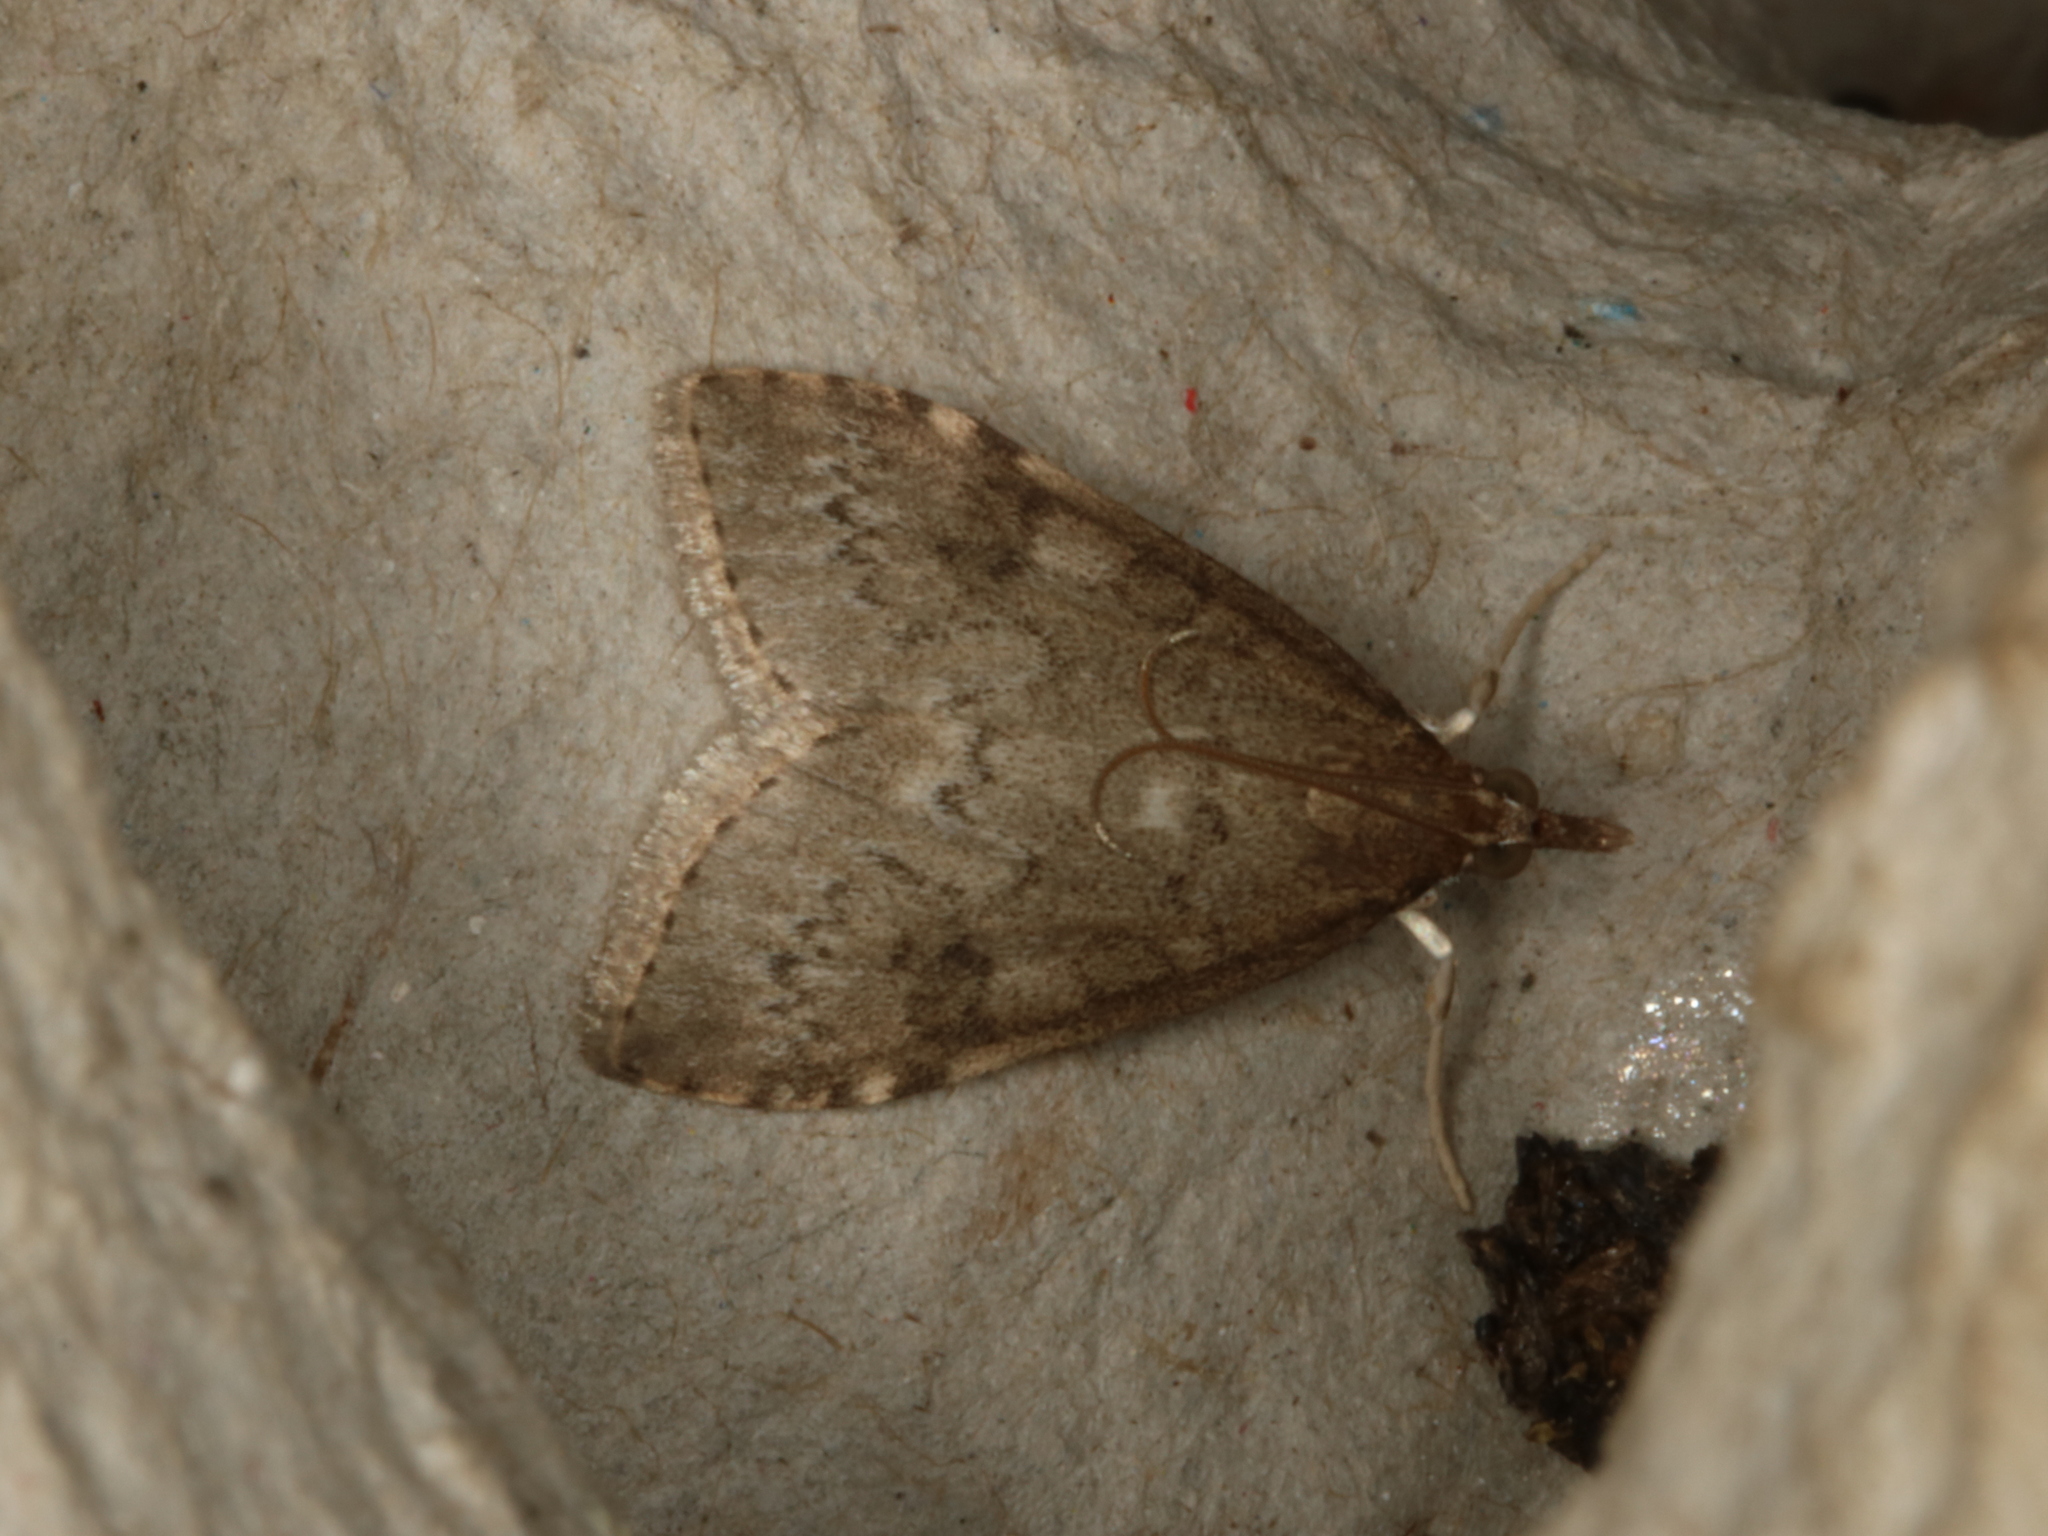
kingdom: Animalia
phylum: Arthropoda
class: Insecta
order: Lepidoptera
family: Crambidae
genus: Udea
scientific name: Udea prunalis
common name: Dusky pearl
